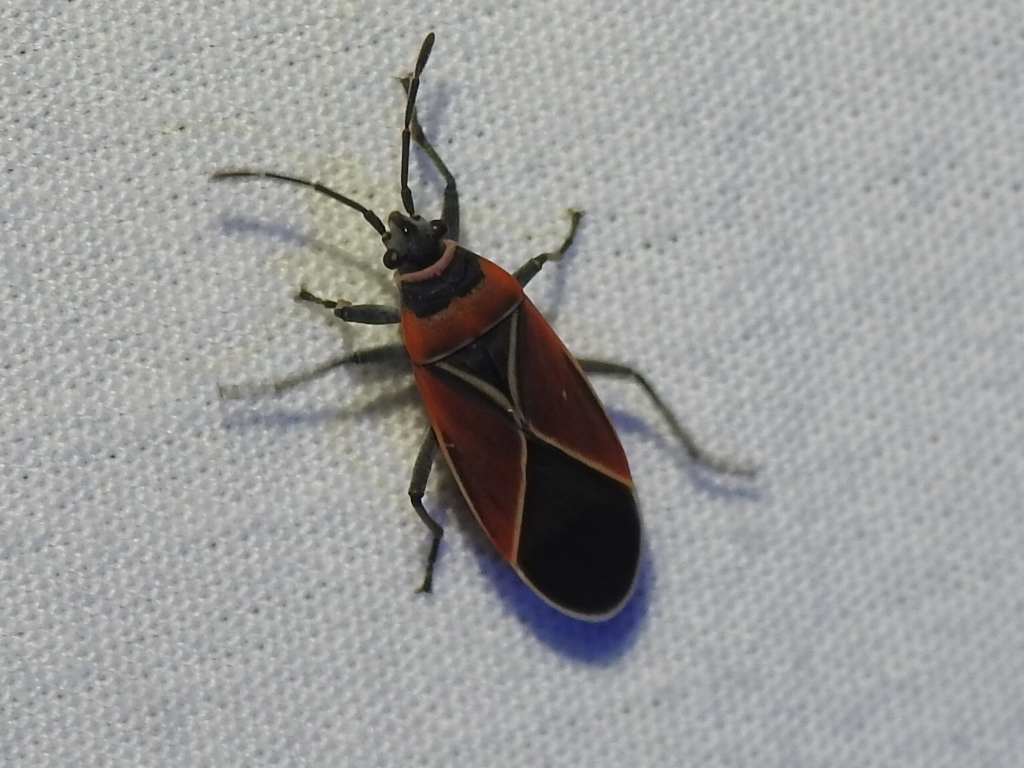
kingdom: Animalia
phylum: Arthropoda
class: Insecta
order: Hemiptera
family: Lygaeidae
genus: Neacoryphus
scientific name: Neacoryphus bicrucis
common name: Lygaeid bug
